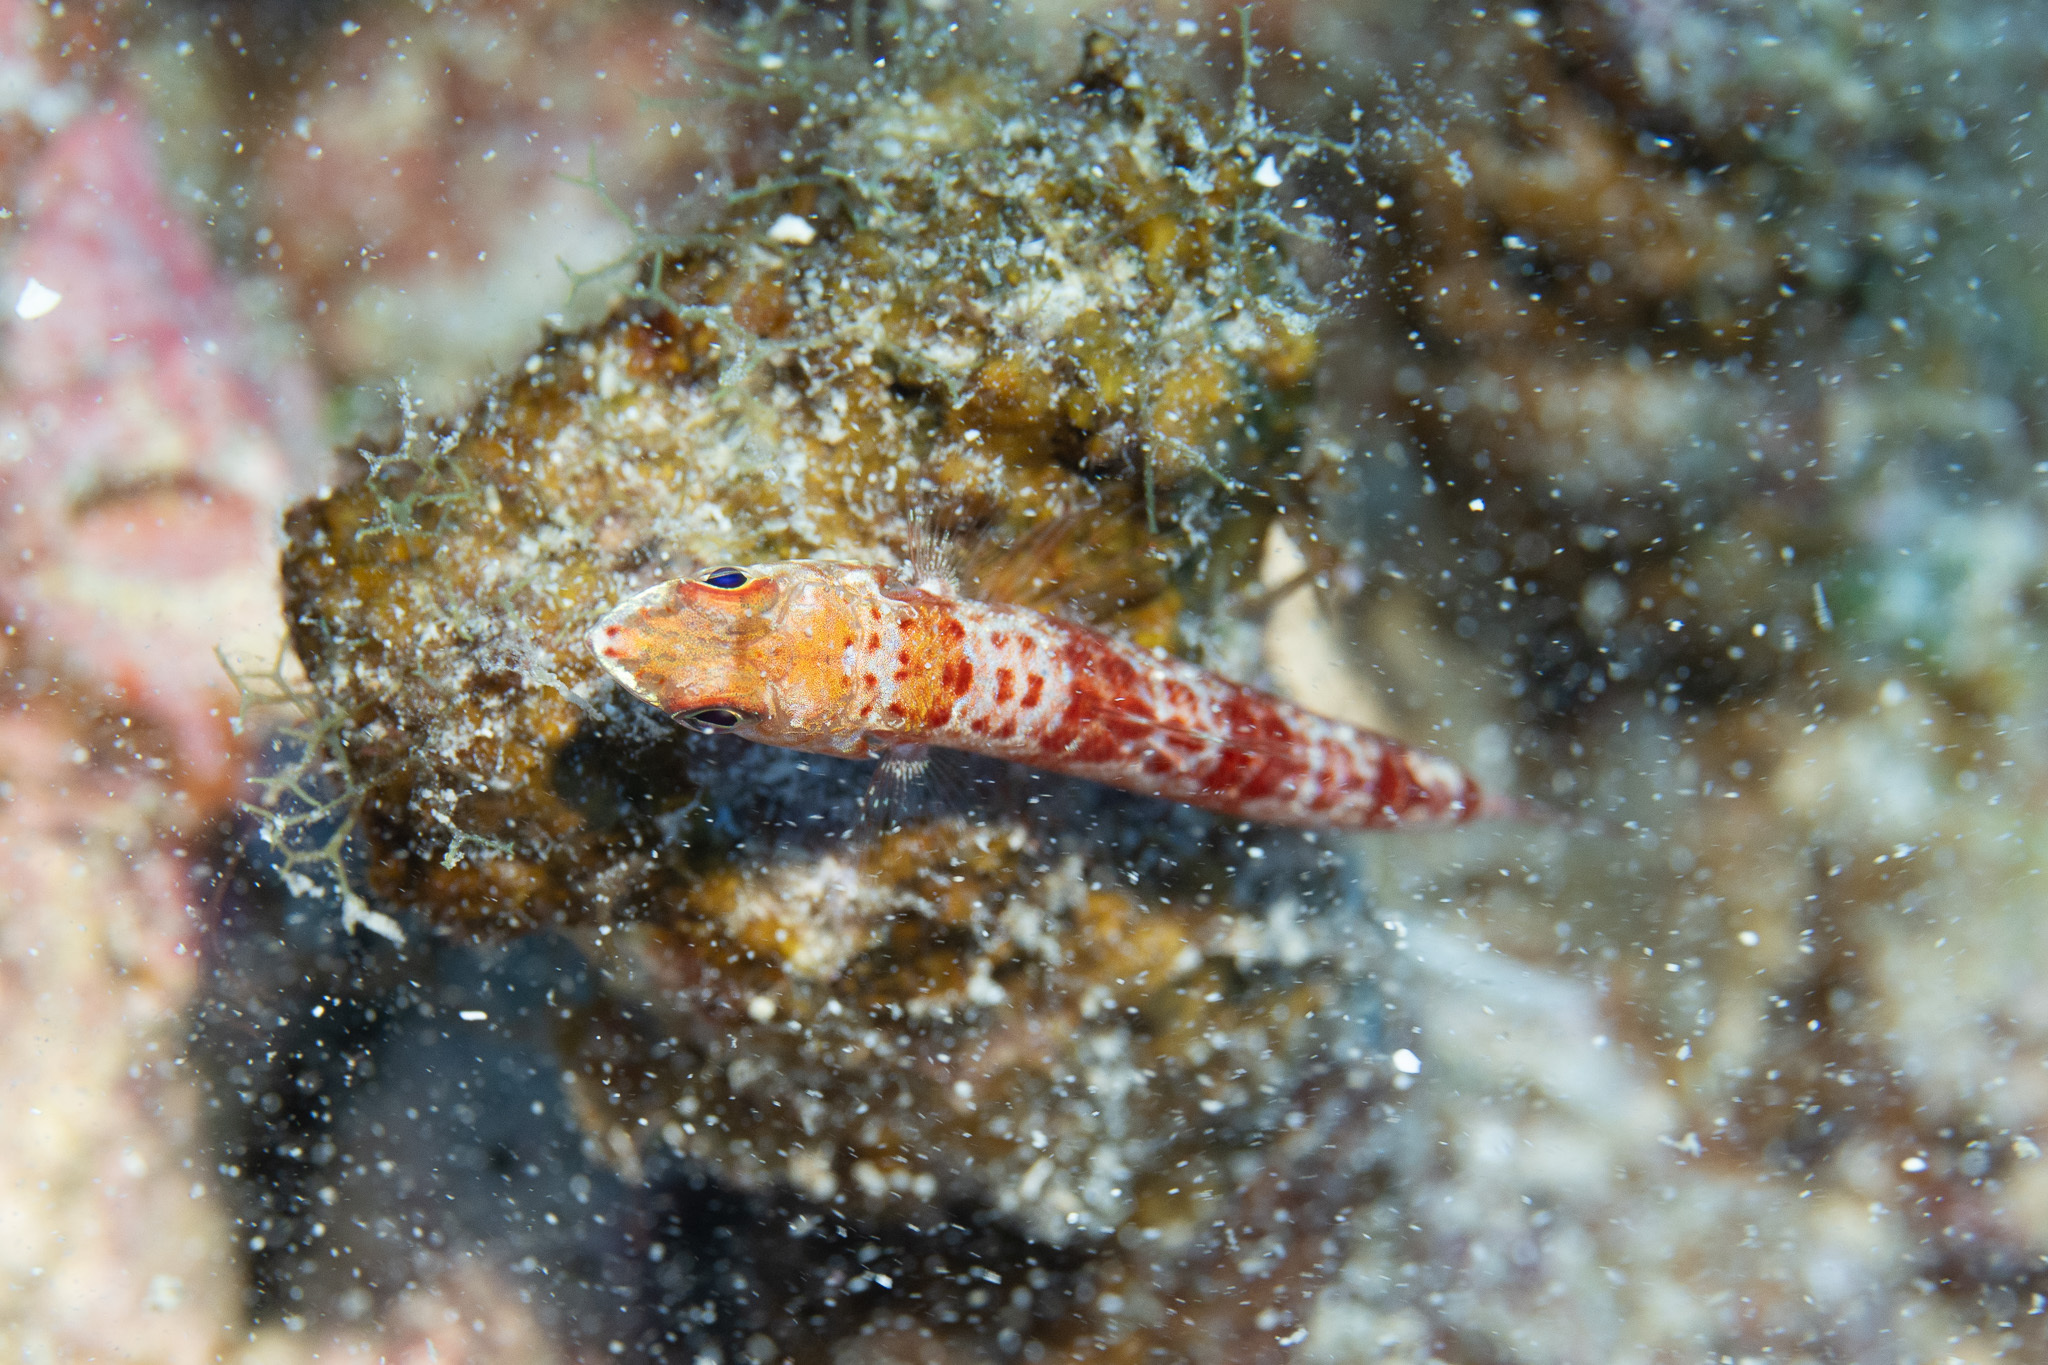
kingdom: Animalia
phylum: Chordata
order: Aulopiformes
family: Synodontidae
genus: Synodus
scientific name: Synodus variegatus
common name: Variegated lizardfish
